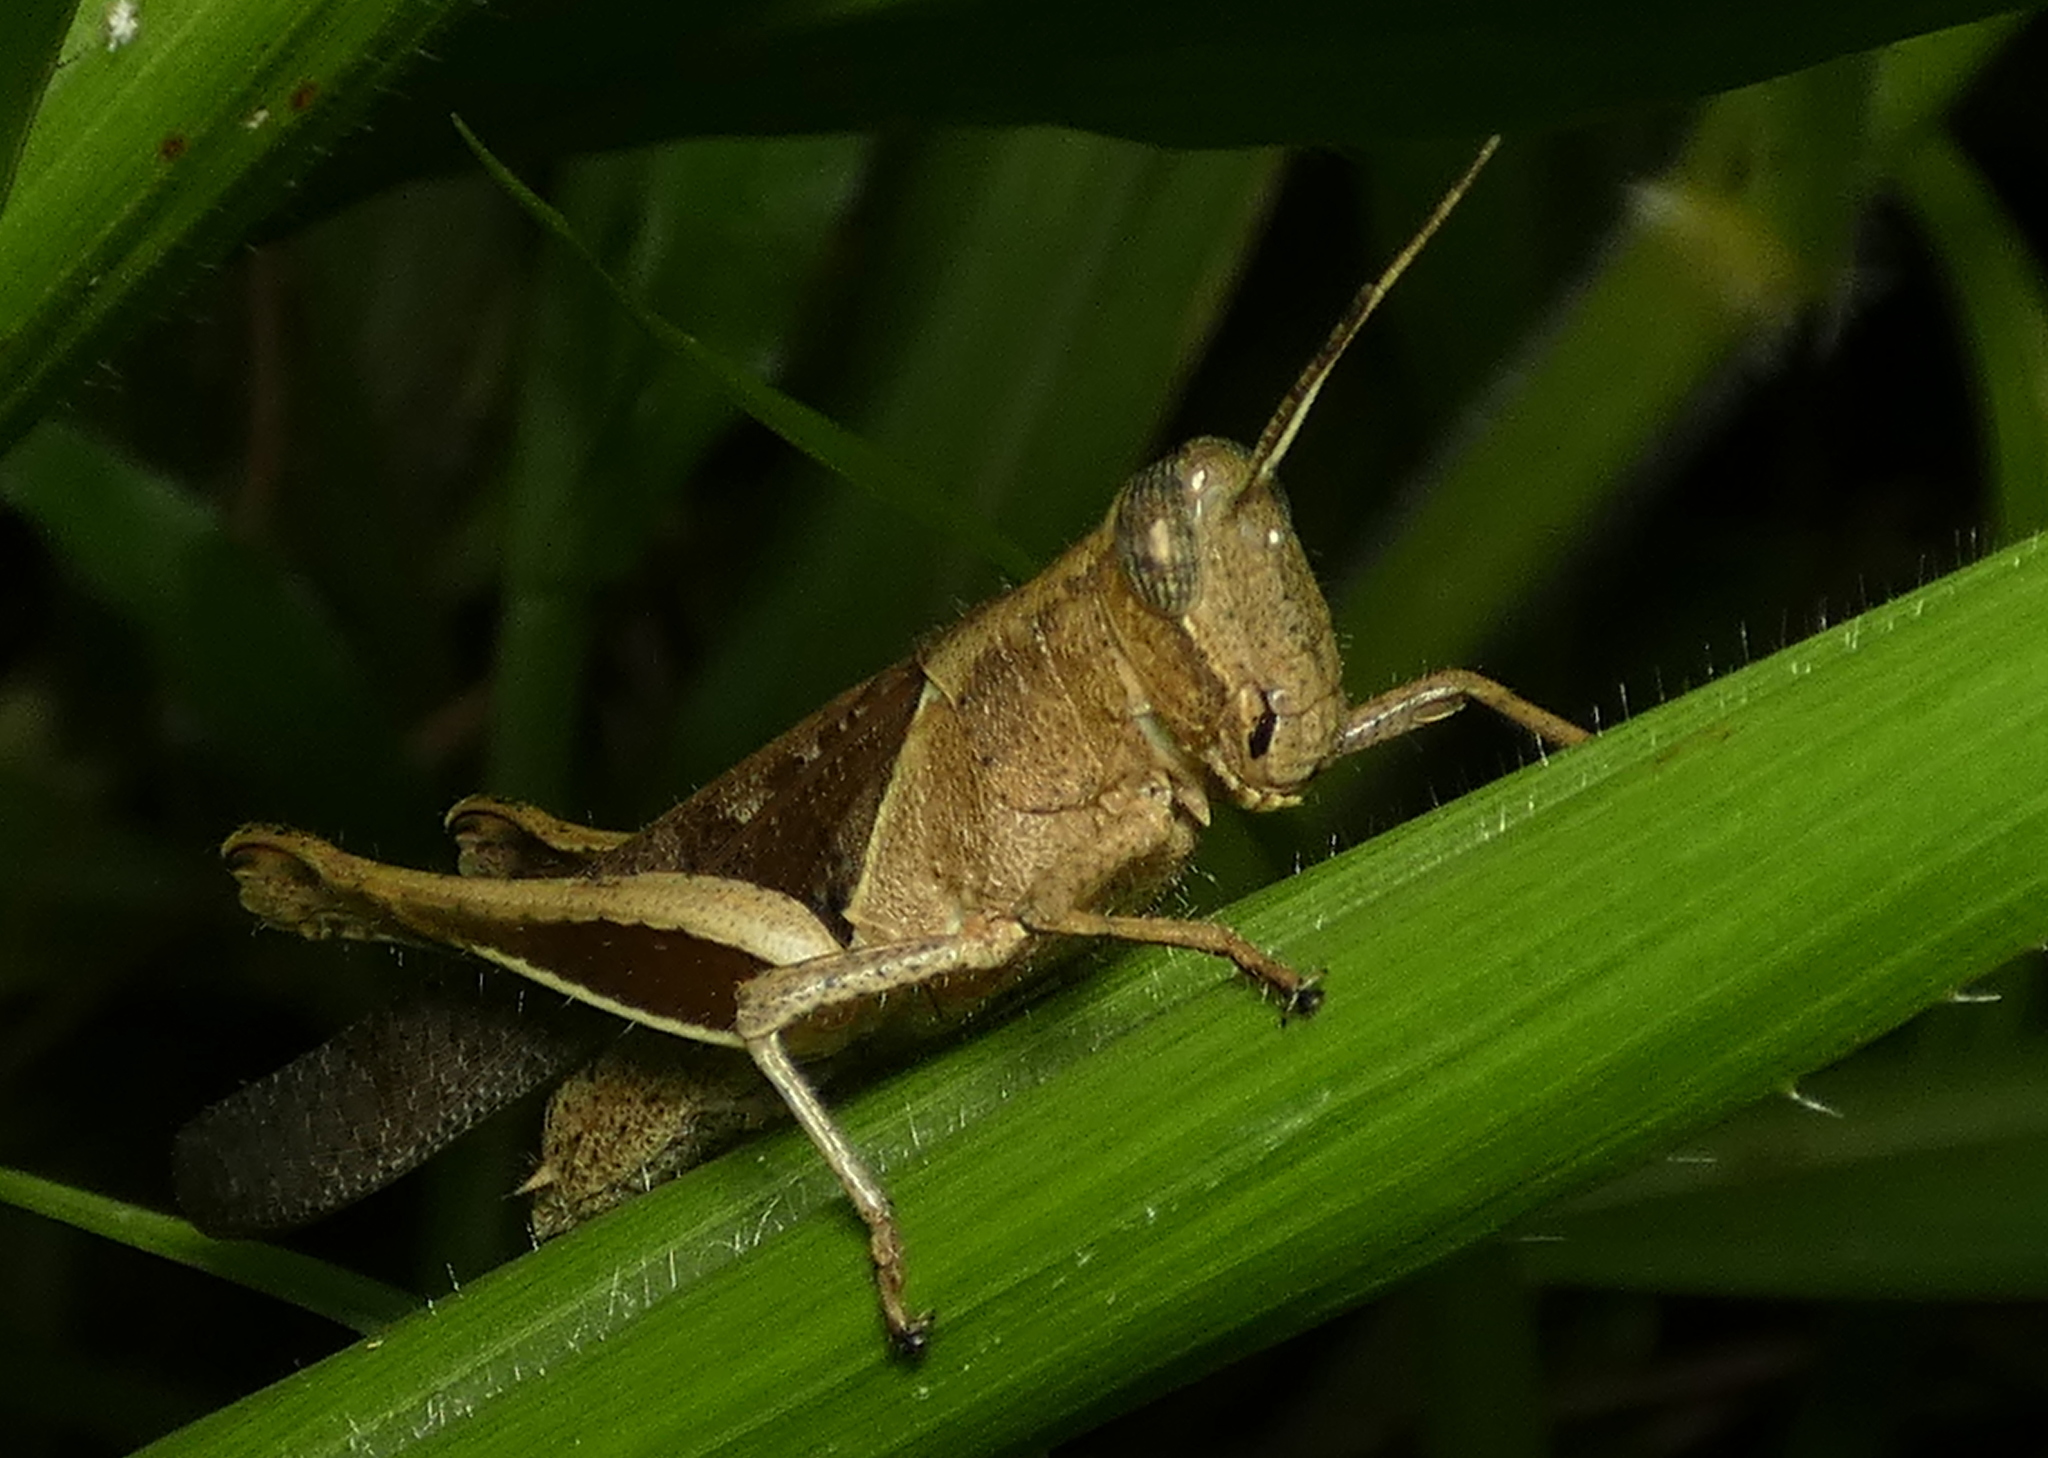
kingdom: Animalia
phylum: Arthropoda
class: Insecta
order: Orthoptera
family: Acrididae
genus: Abracris
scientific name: Abracris flavolineata
